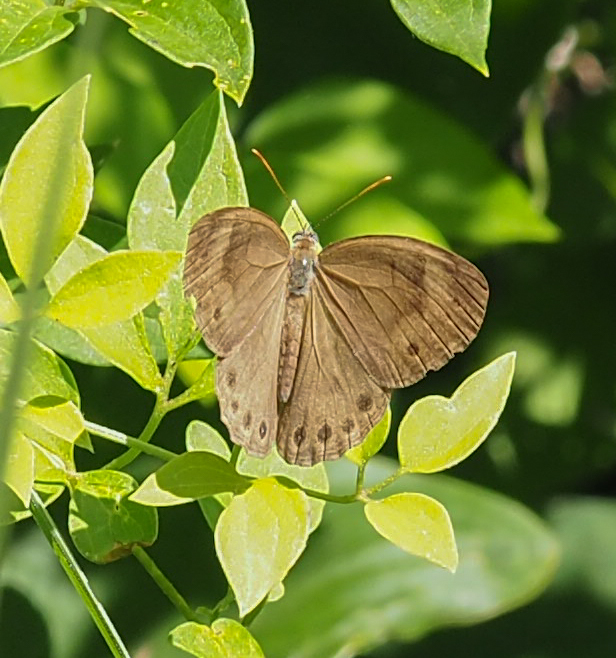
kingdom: Animalia
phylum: Arthropoda
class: Insecta
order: Lepidoptera
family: Nymphalidae
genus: Lethe
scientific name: Lethe eurydice
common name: Eyed brown
